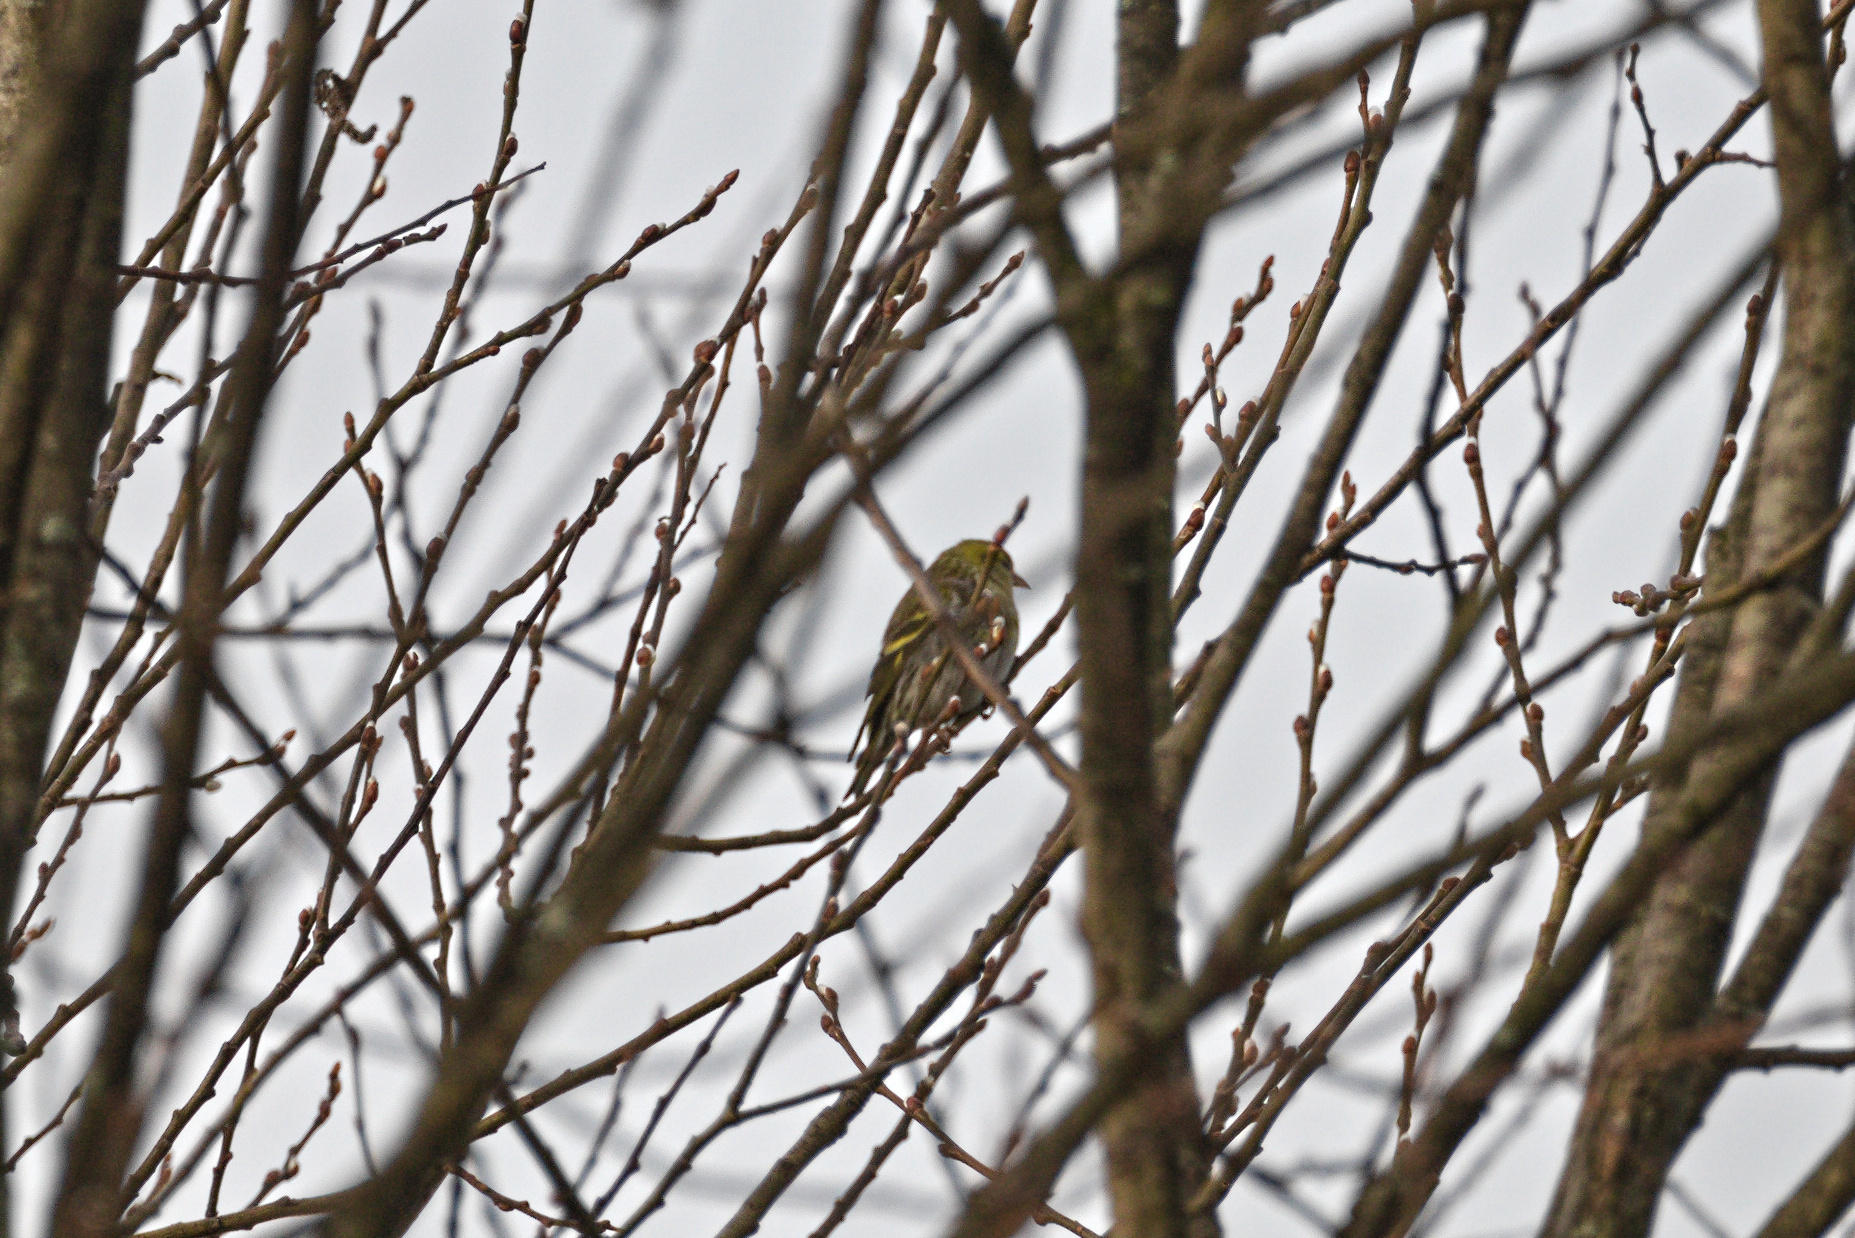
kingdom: Animalia
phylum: Chordata
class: Aves
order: Passeriformes
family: Fringillidae
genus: Spinus
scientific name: Spinus spinus
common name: Eurasian siskin
